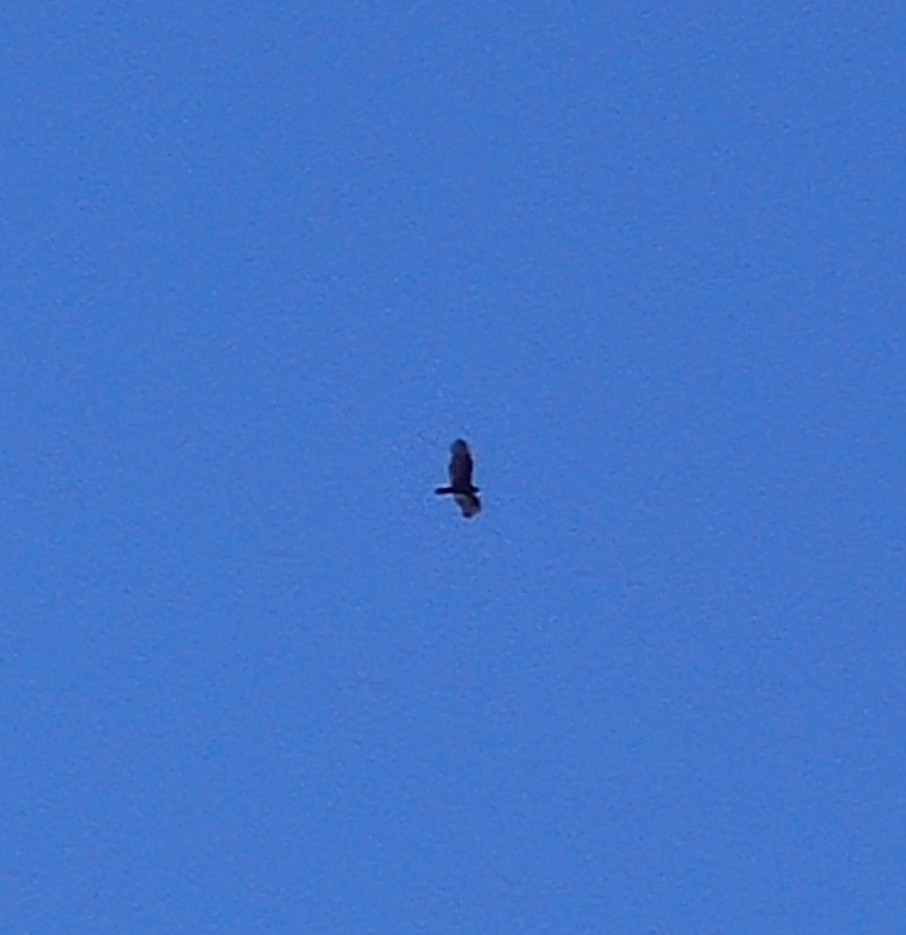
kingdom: Animalia
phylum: Chordata
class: Aves
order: Accipitriformes
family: Cathartidae
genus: Cathartes
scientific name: Cathartes aura
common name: Turkey vulture
